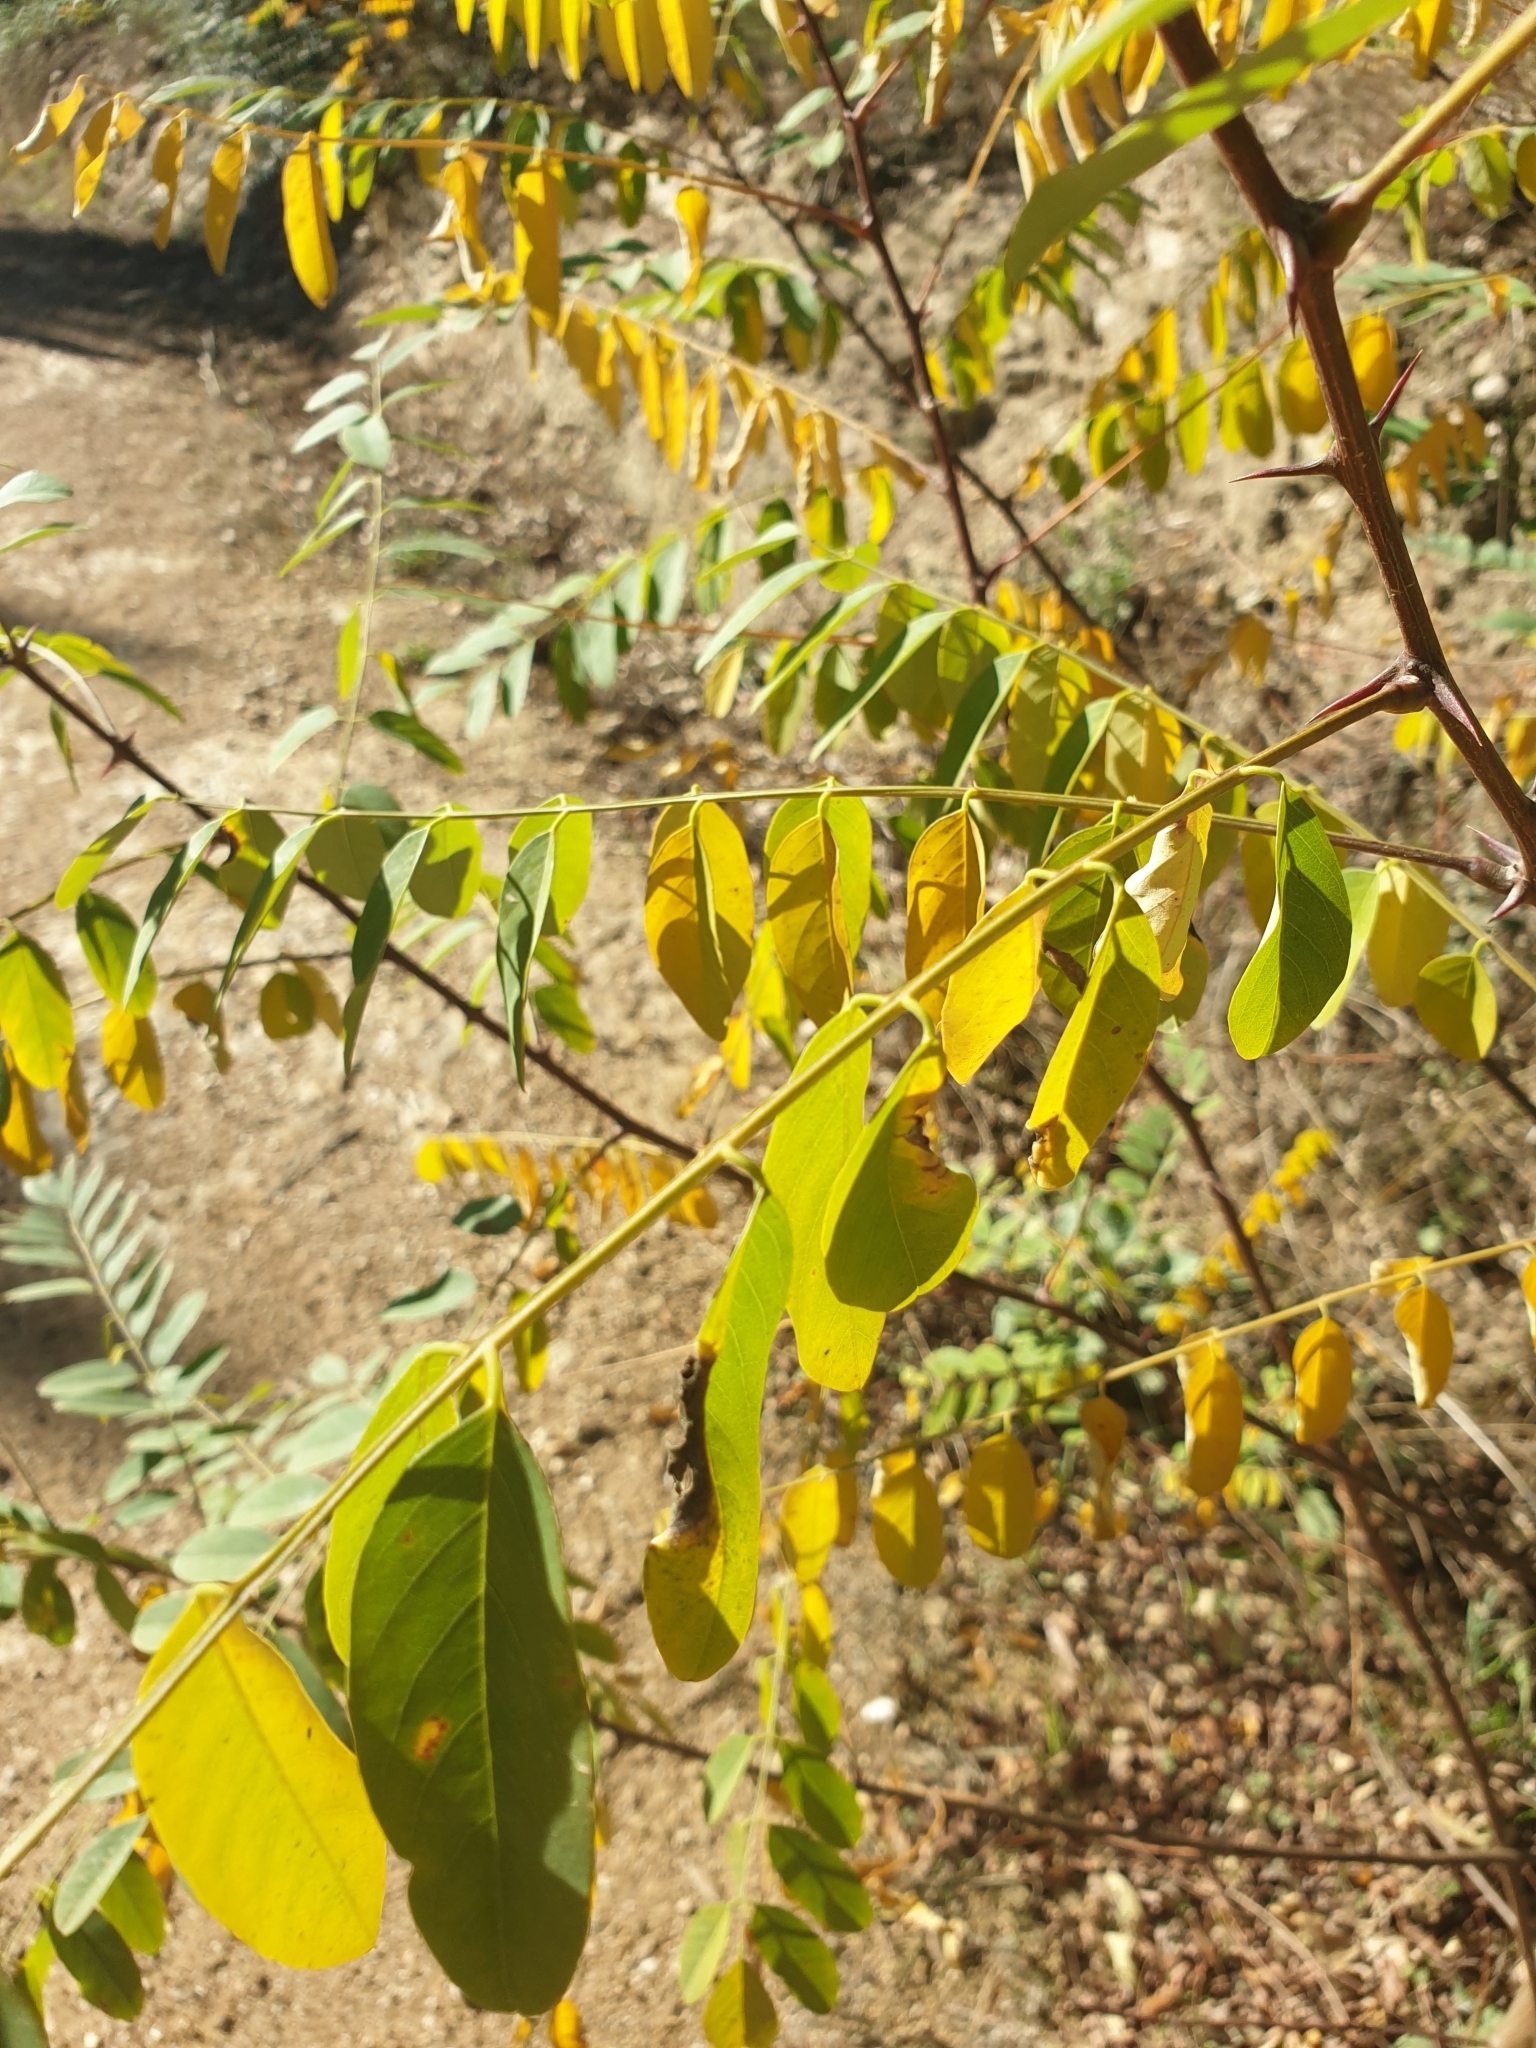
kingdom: Plantae
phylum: Tracheophyta
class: Magnoliopsida
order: Fabales
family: Fabaceae
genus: Robinia
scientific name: Robinia pseudoacacia
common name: Black locust
